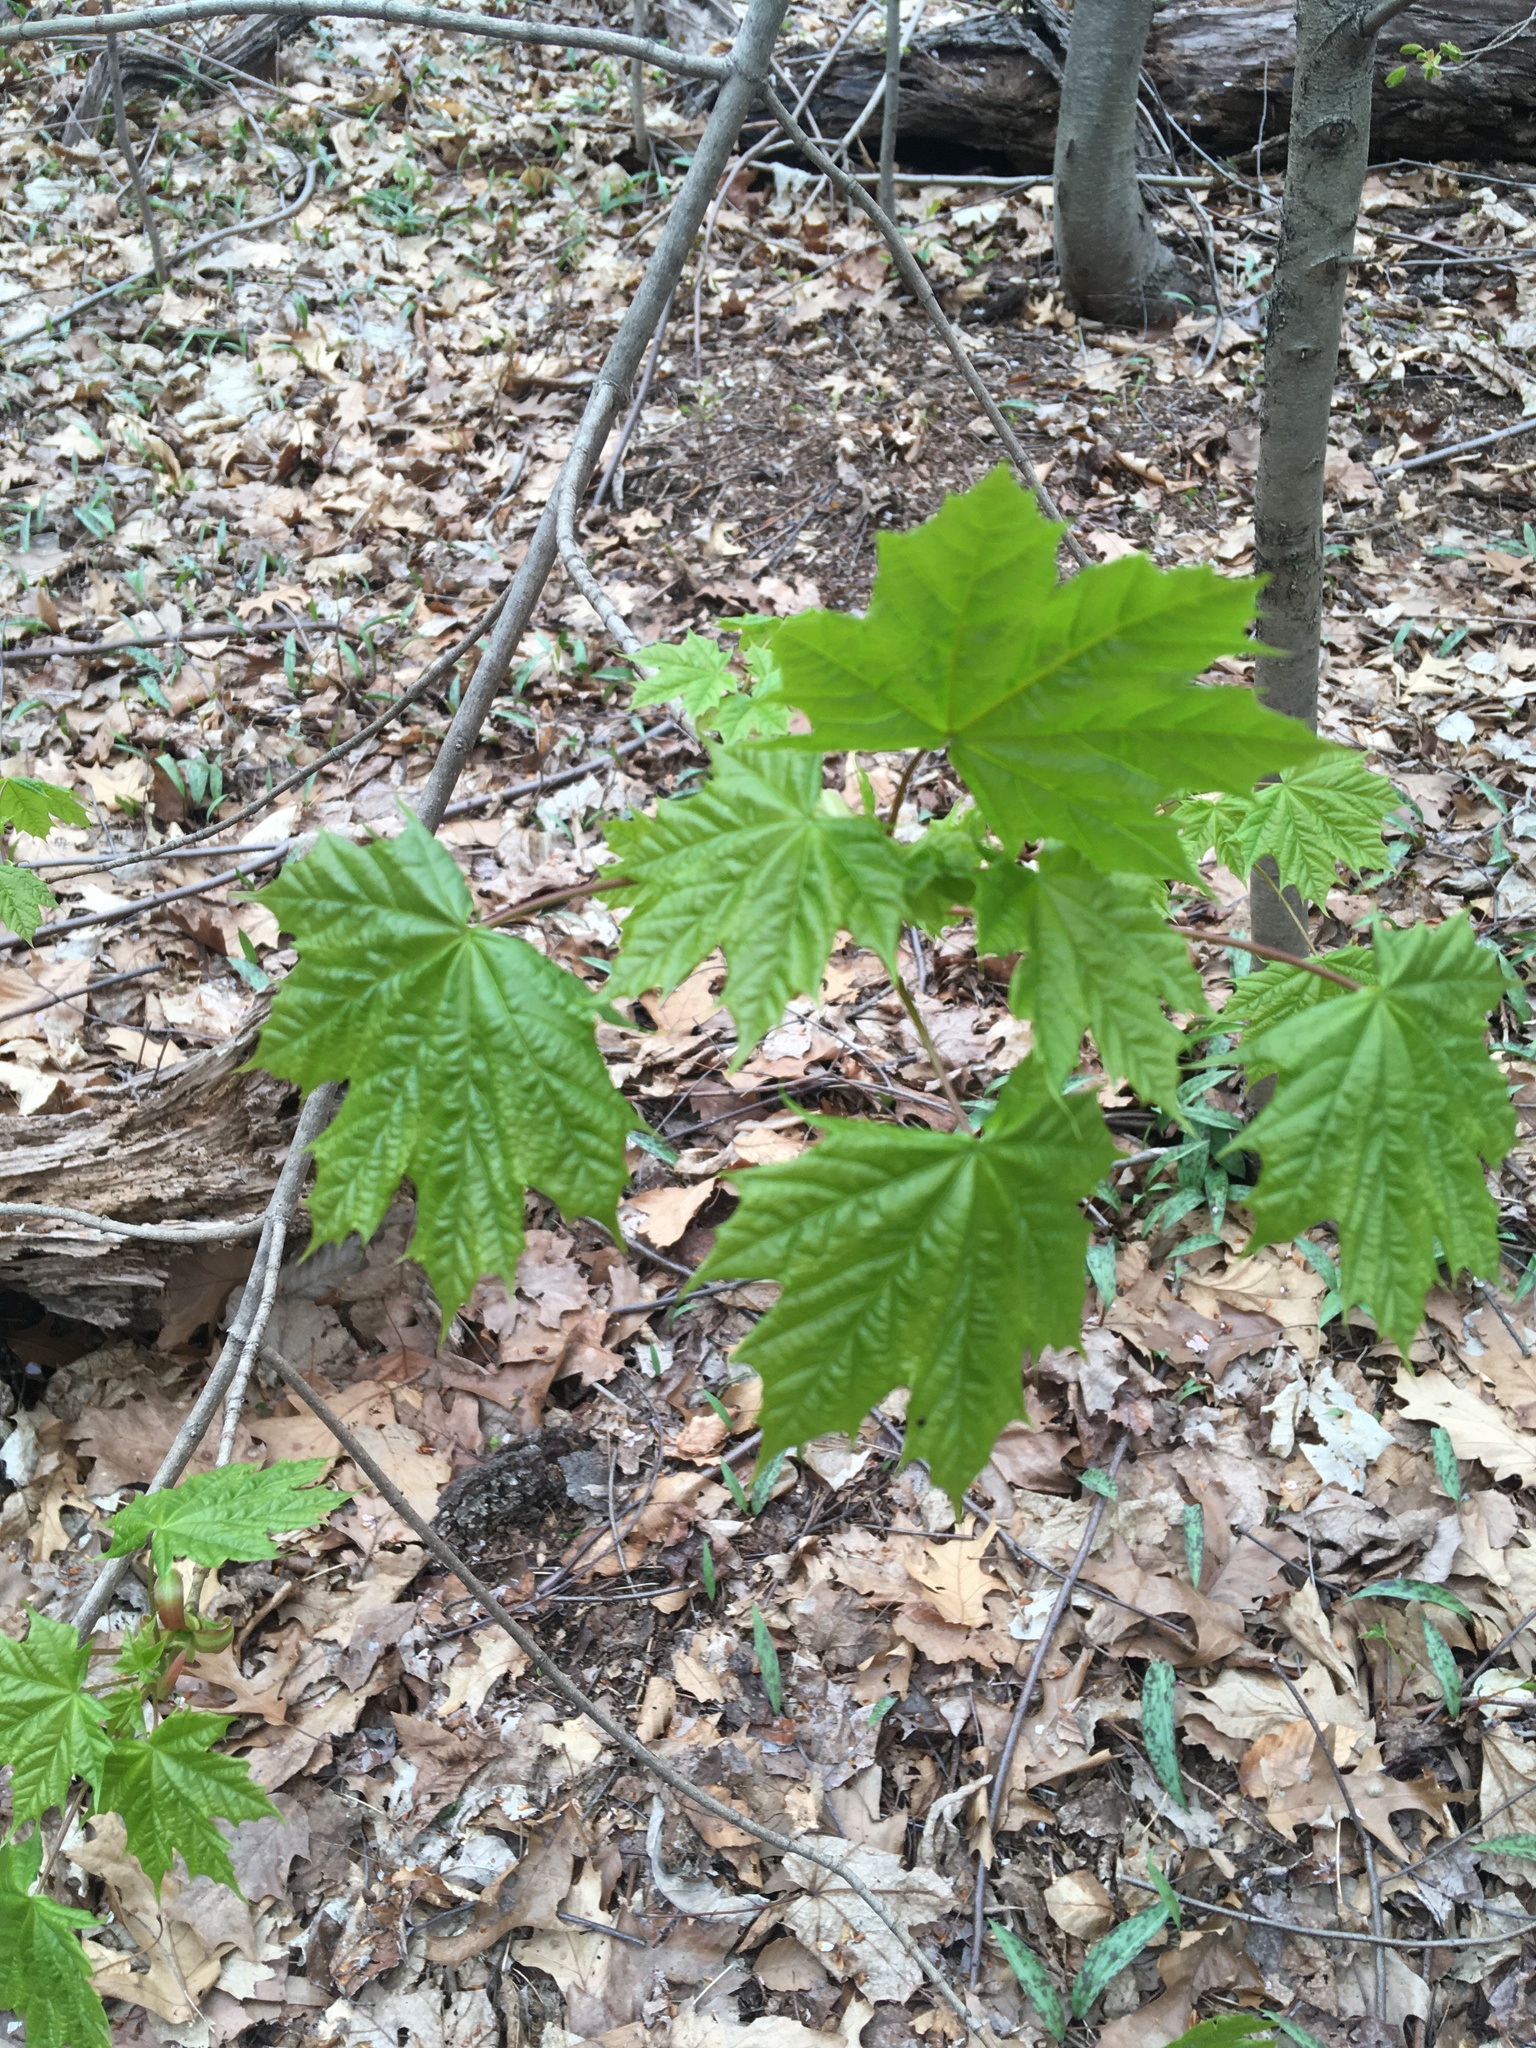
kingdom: Plantae
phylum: Tracheophyta
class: Magnoliopsida
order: Sapindales
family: Sapindaceae
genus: Acer
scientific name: Acer platanoides
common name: Norway maple
